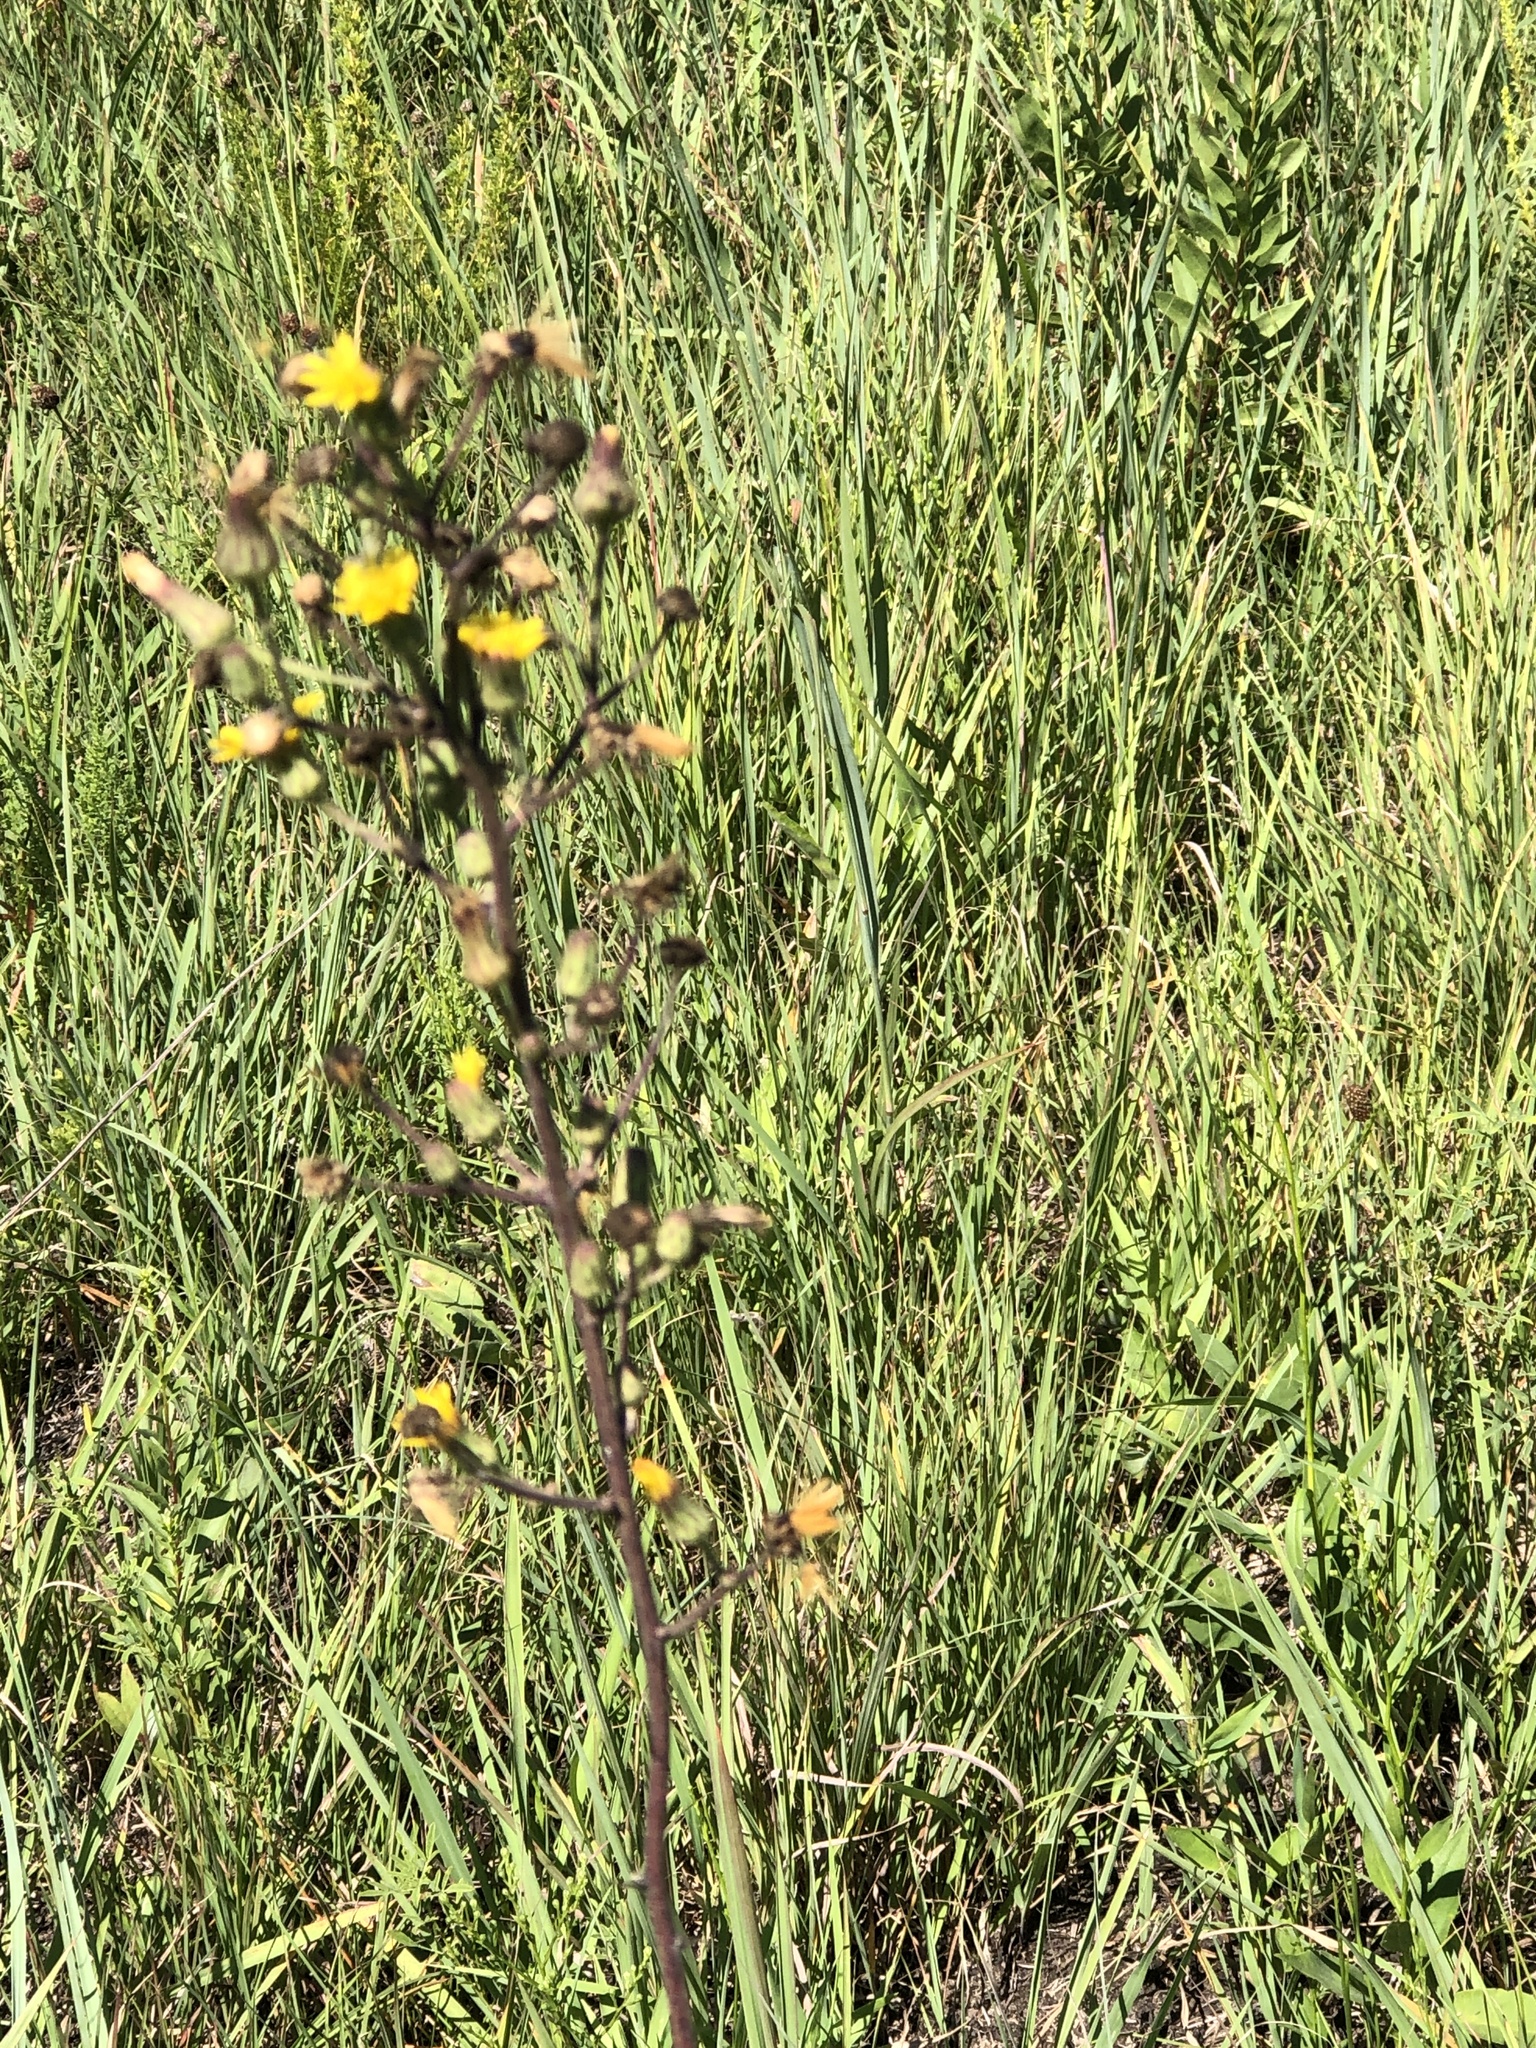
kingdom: Plantae
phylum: Tracheophyta
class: Magnoliopsida
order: Asterales
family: Asteraceae
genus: Hieracium
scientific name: Hieracium longipilum
